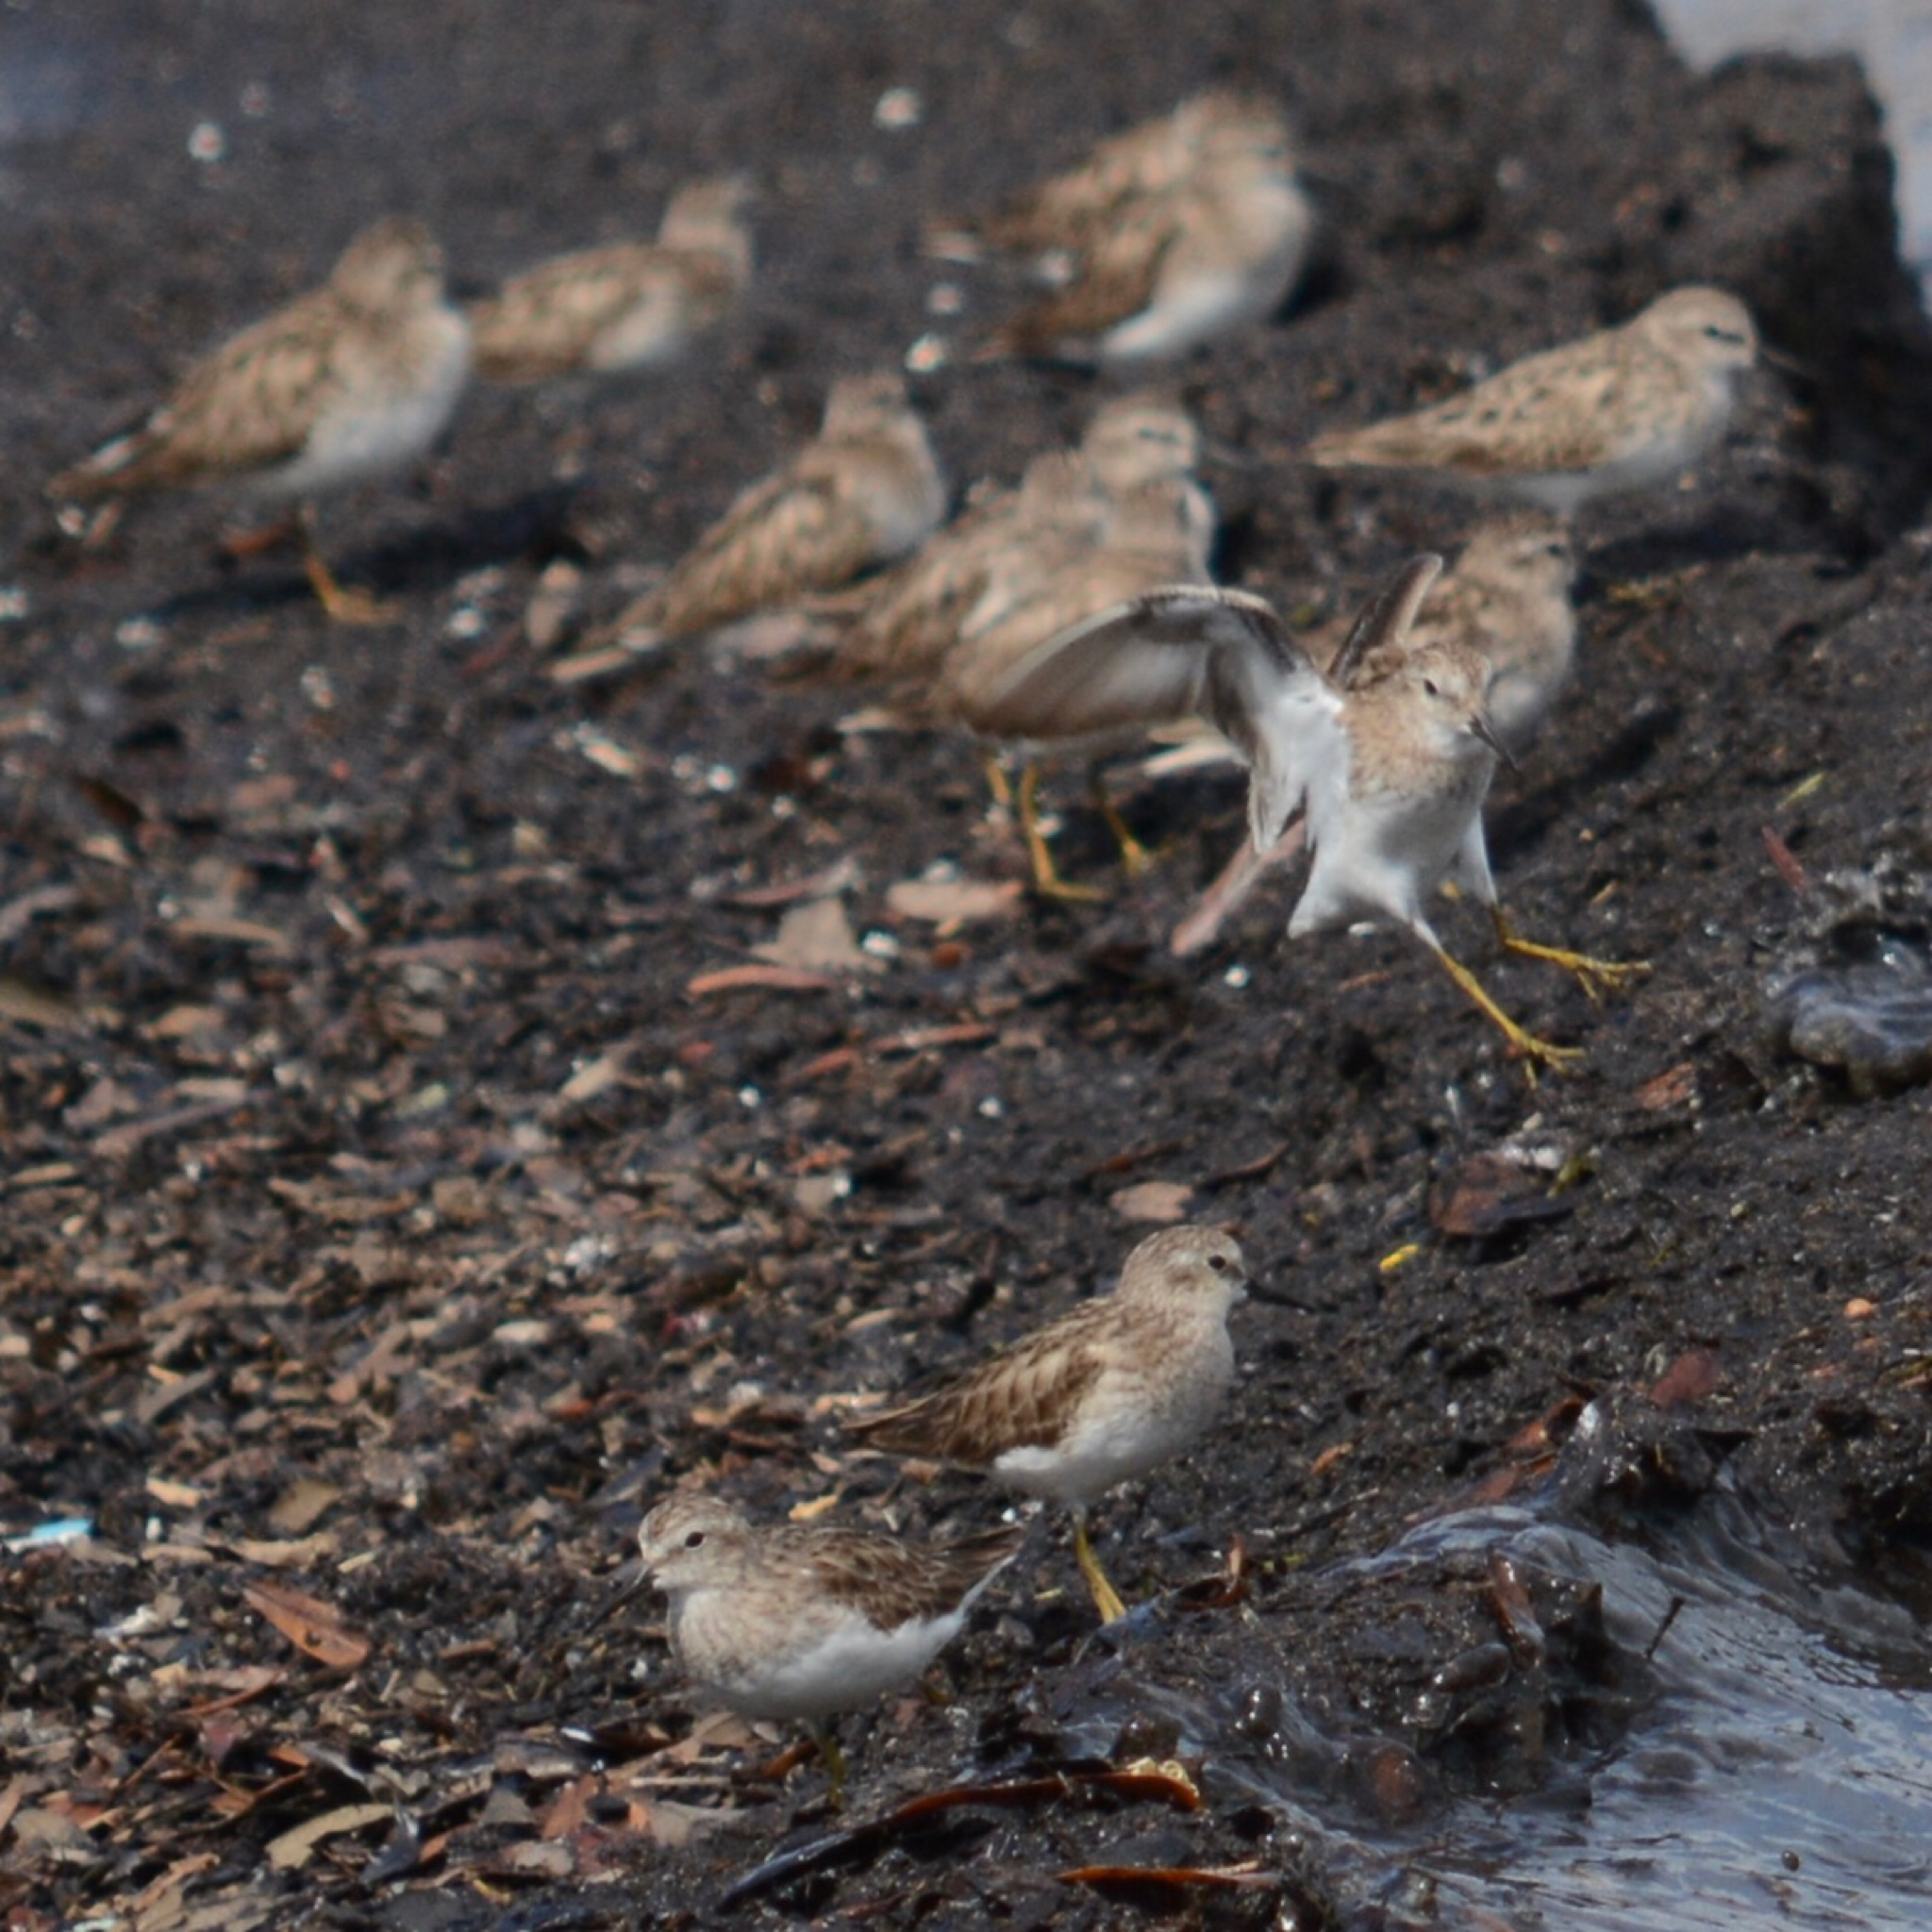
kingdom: Animalia
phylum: Chordata
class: Aves
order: Charadriiformes
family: Scolopacidae
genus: Calidris
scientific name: Calidris minutilla
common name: Least sandpiper
